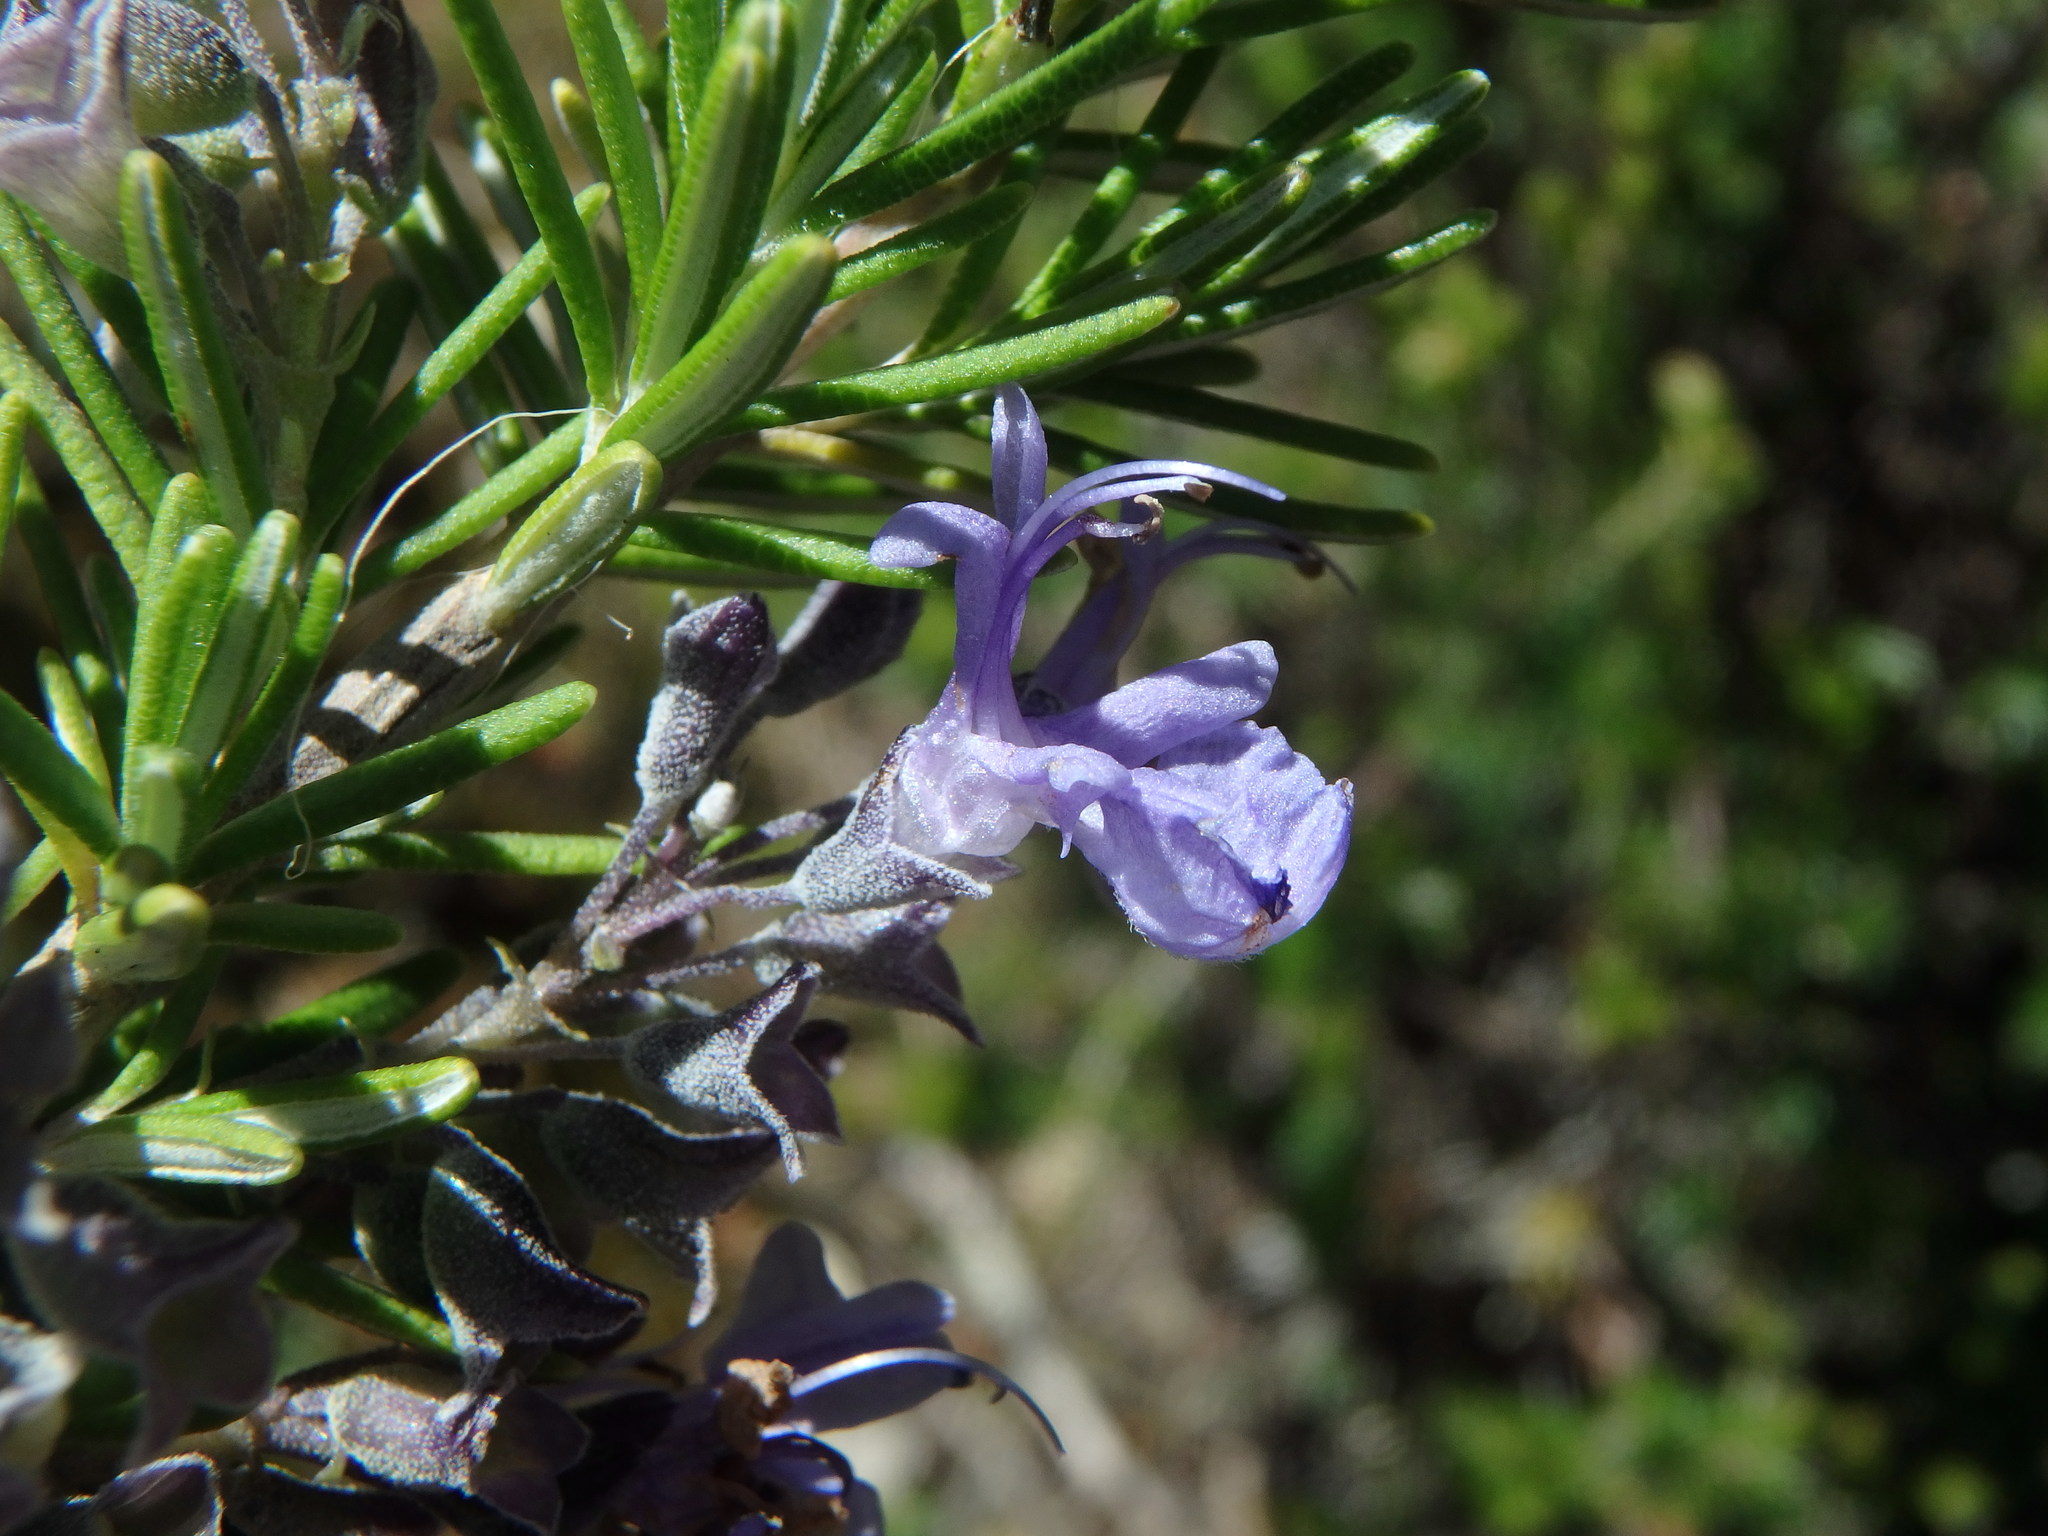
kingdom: Plantae
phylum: Tracheophyta
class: Magnoliopsida
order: Lamiales
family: Lamiaceae
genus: Salvia
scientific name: Salvia rosmarinus
